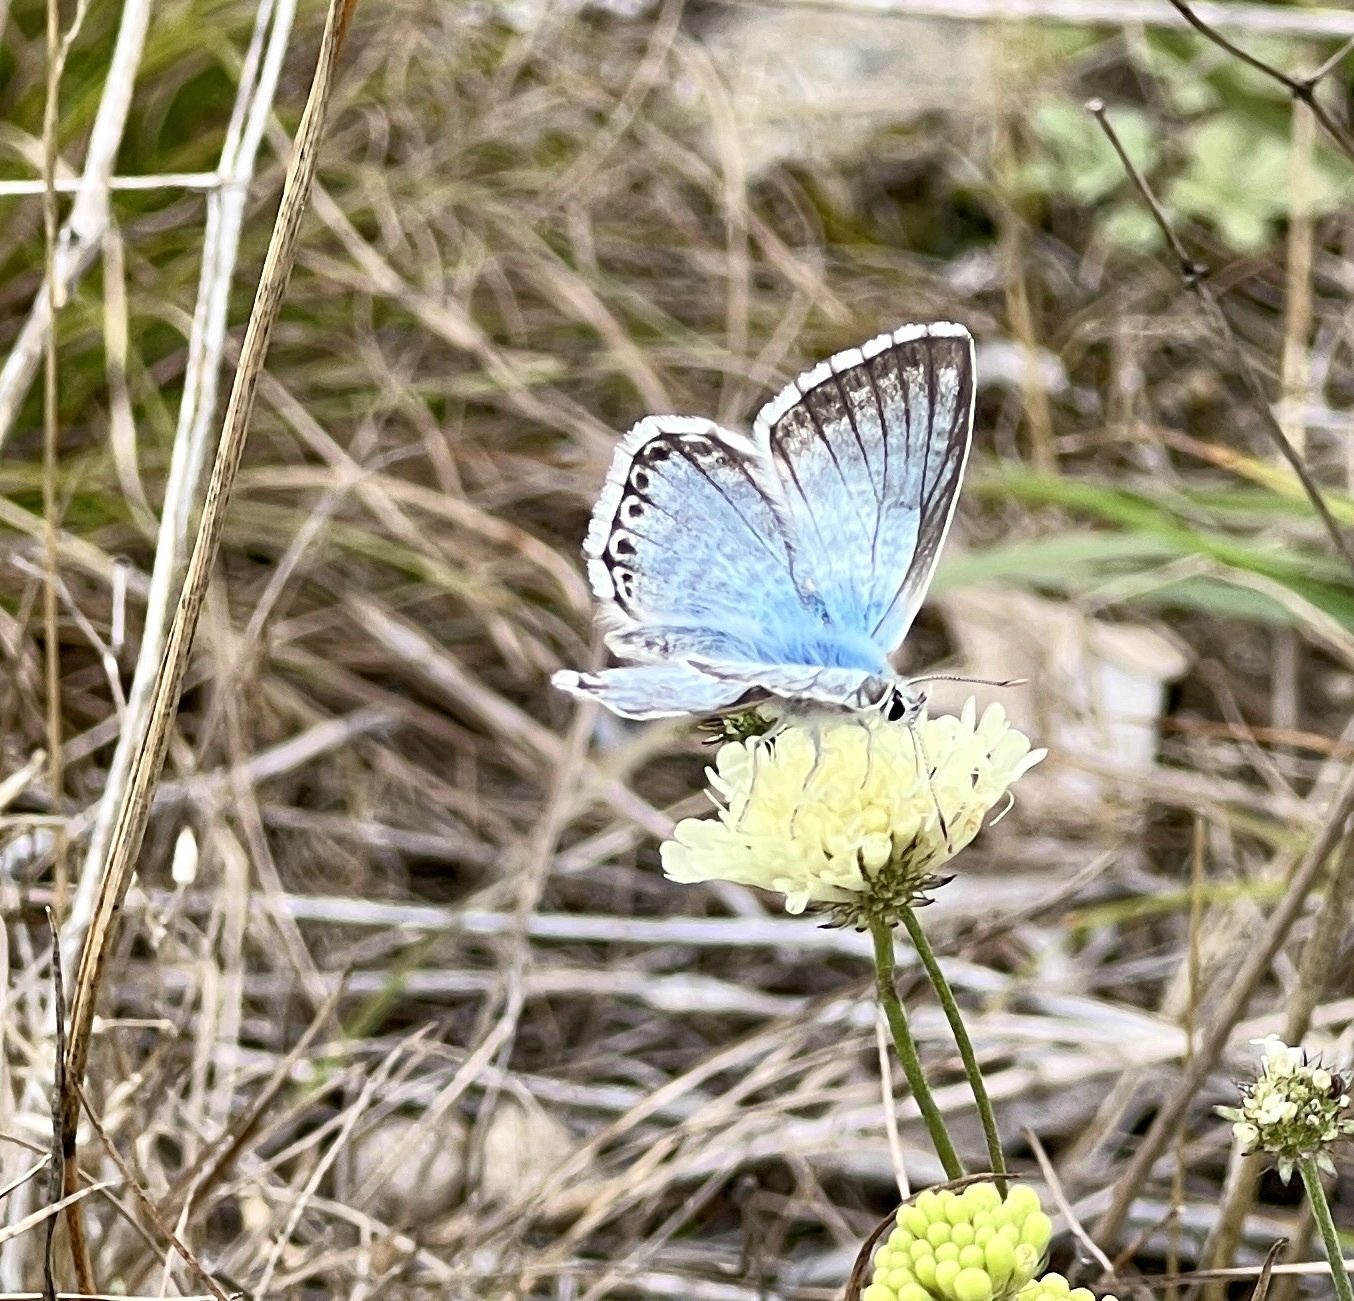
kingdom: Animalia
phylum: Arthropoda
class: Insecta
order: Lepidoptera
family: Lycaenidae
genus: Lysandra
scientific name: Lysandra coridon
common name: Chalkhill blue
